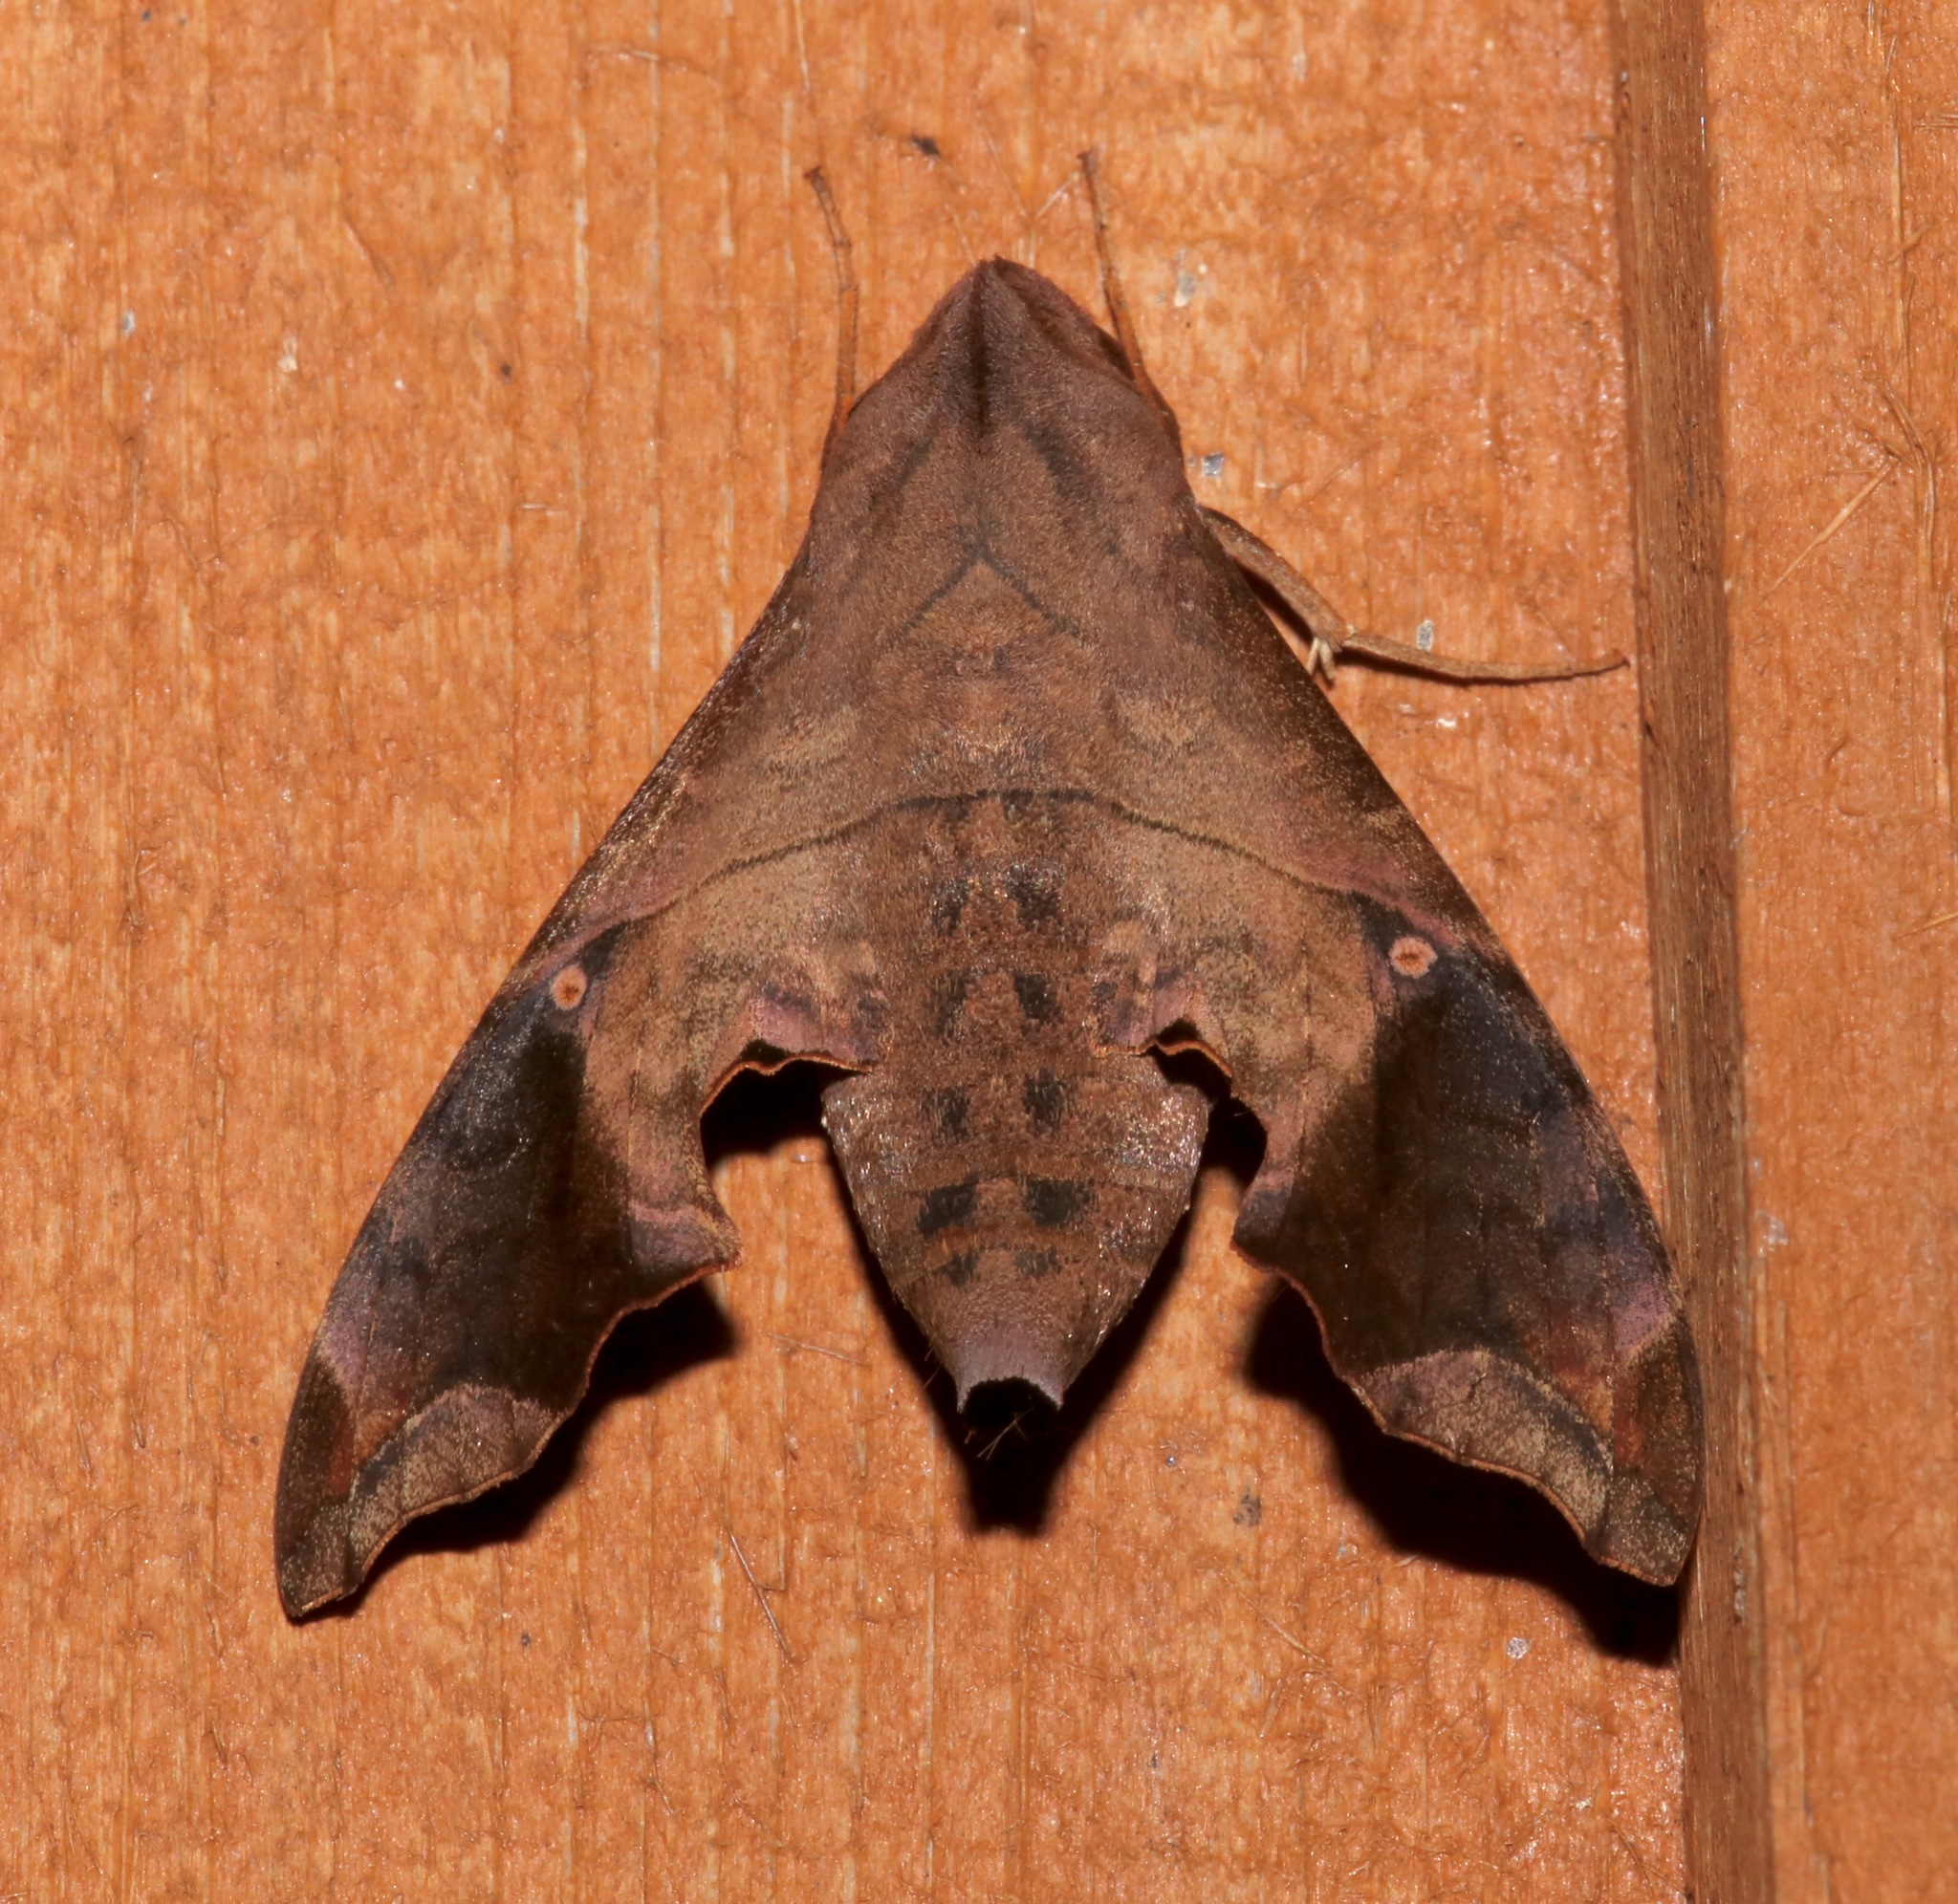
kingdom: Animalia
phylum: Arthropoda
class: Insecta
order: Lepidoptera
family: Sphingidae
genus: Enyo
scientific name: Enyo lugubris
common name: Mournful sphinx
